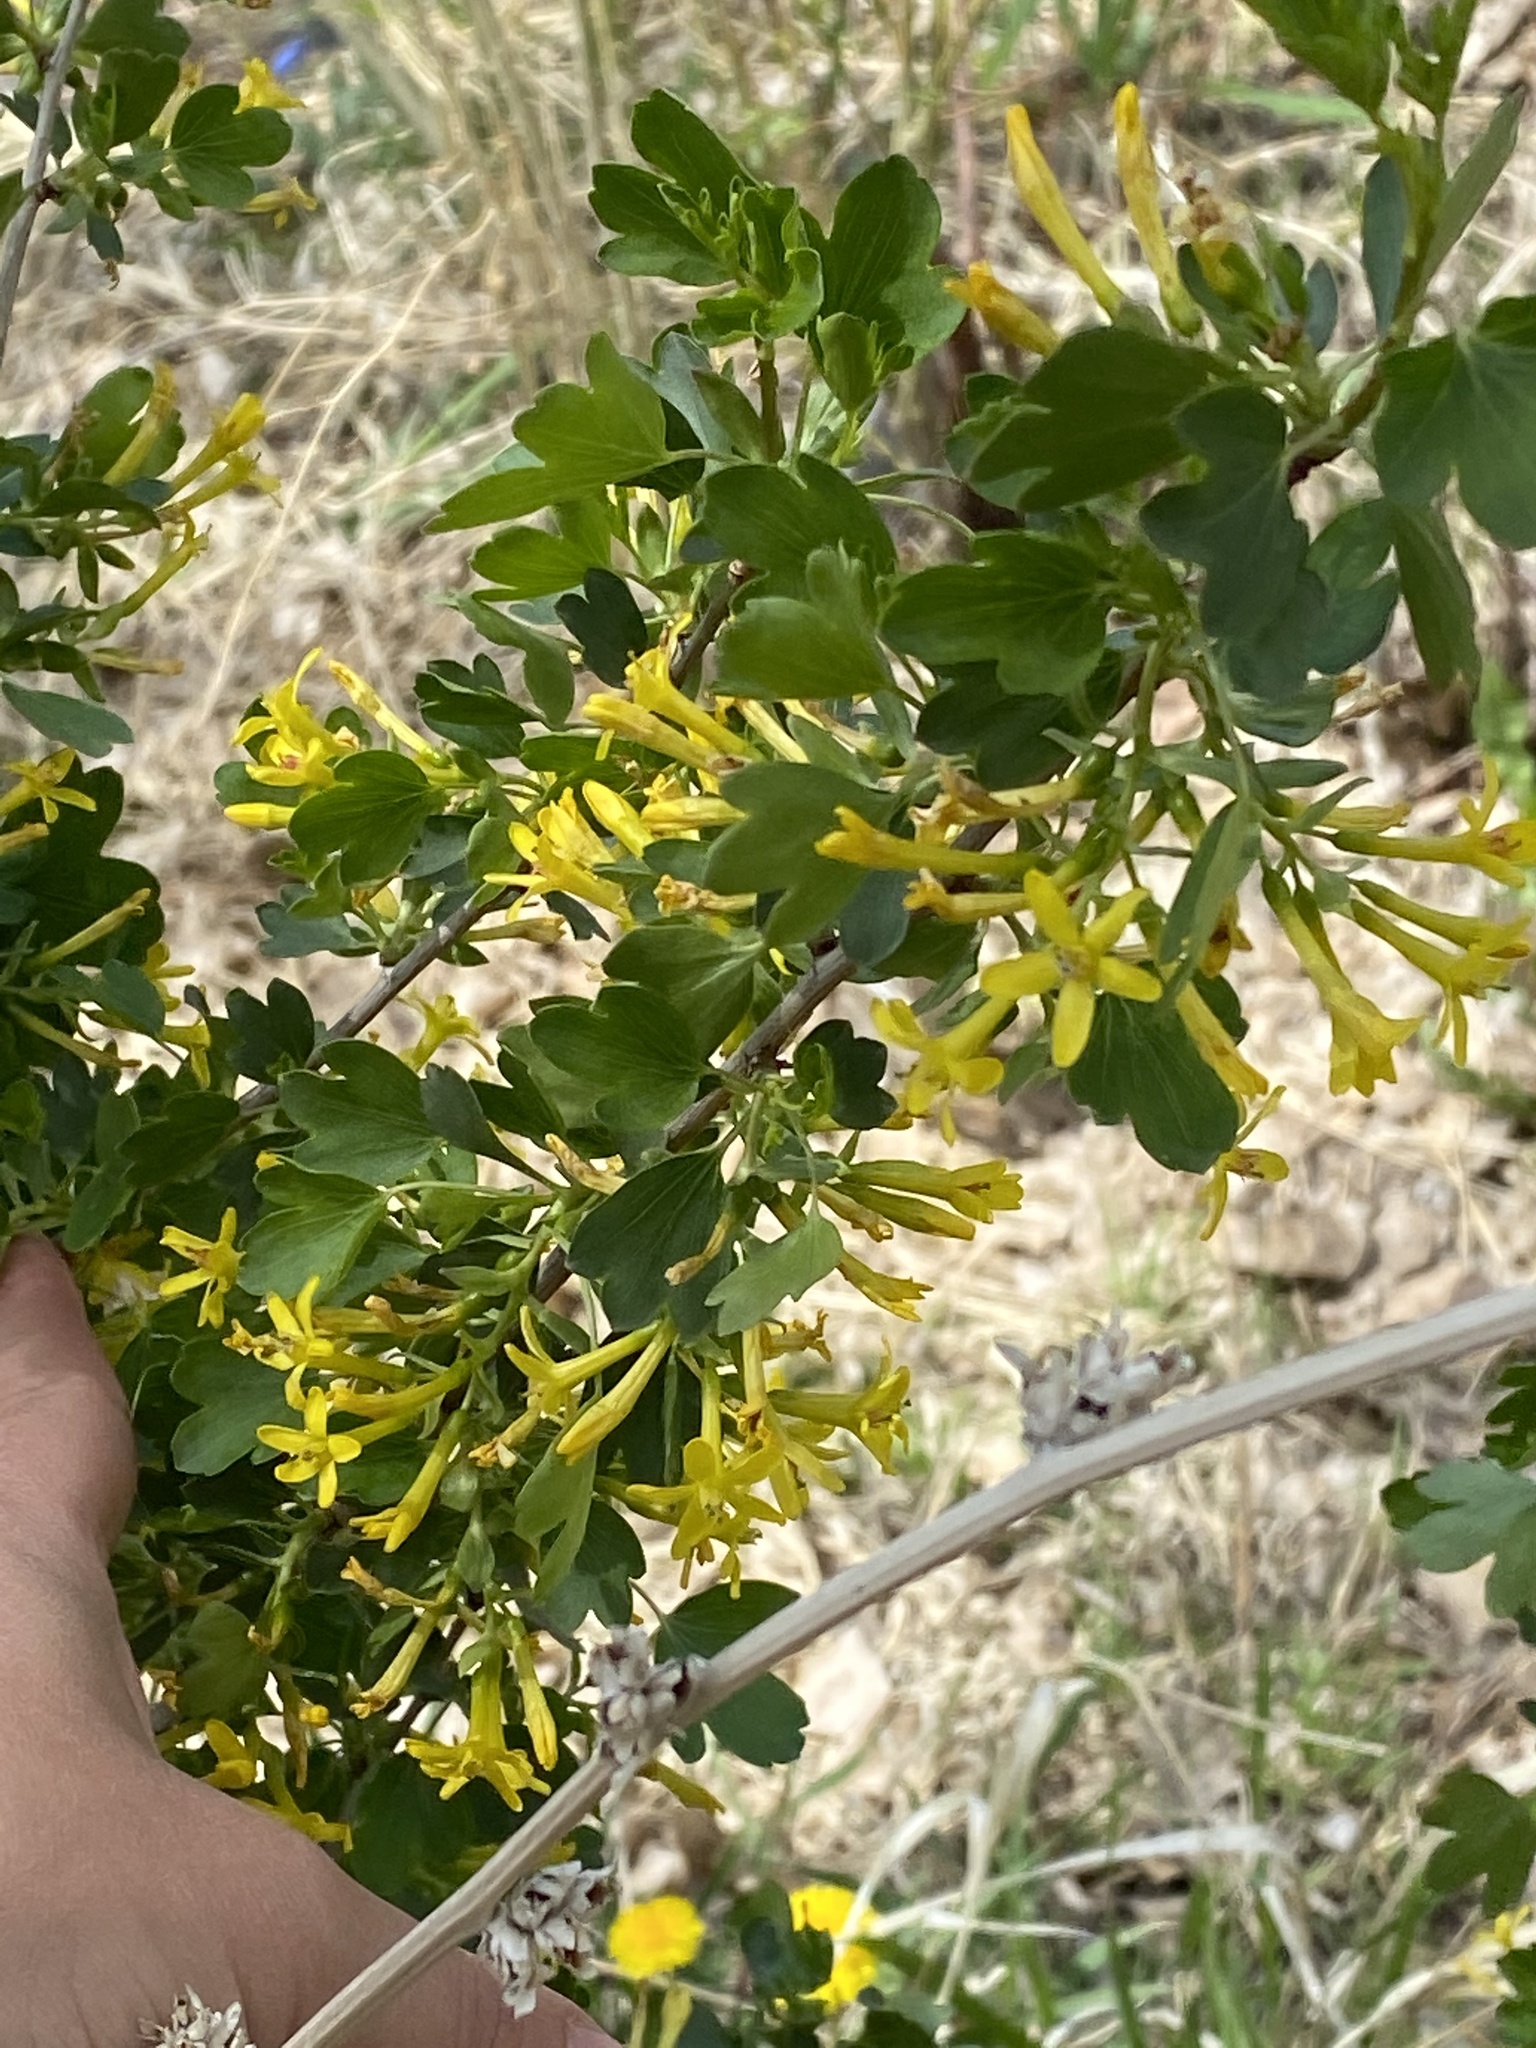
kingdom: Plantae
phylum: Tracheophyta
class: Magnoliopsida
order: Saxifragales
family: Grossulariaceae
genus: Ribes
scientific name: Ribes aureum
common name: Golden currant
